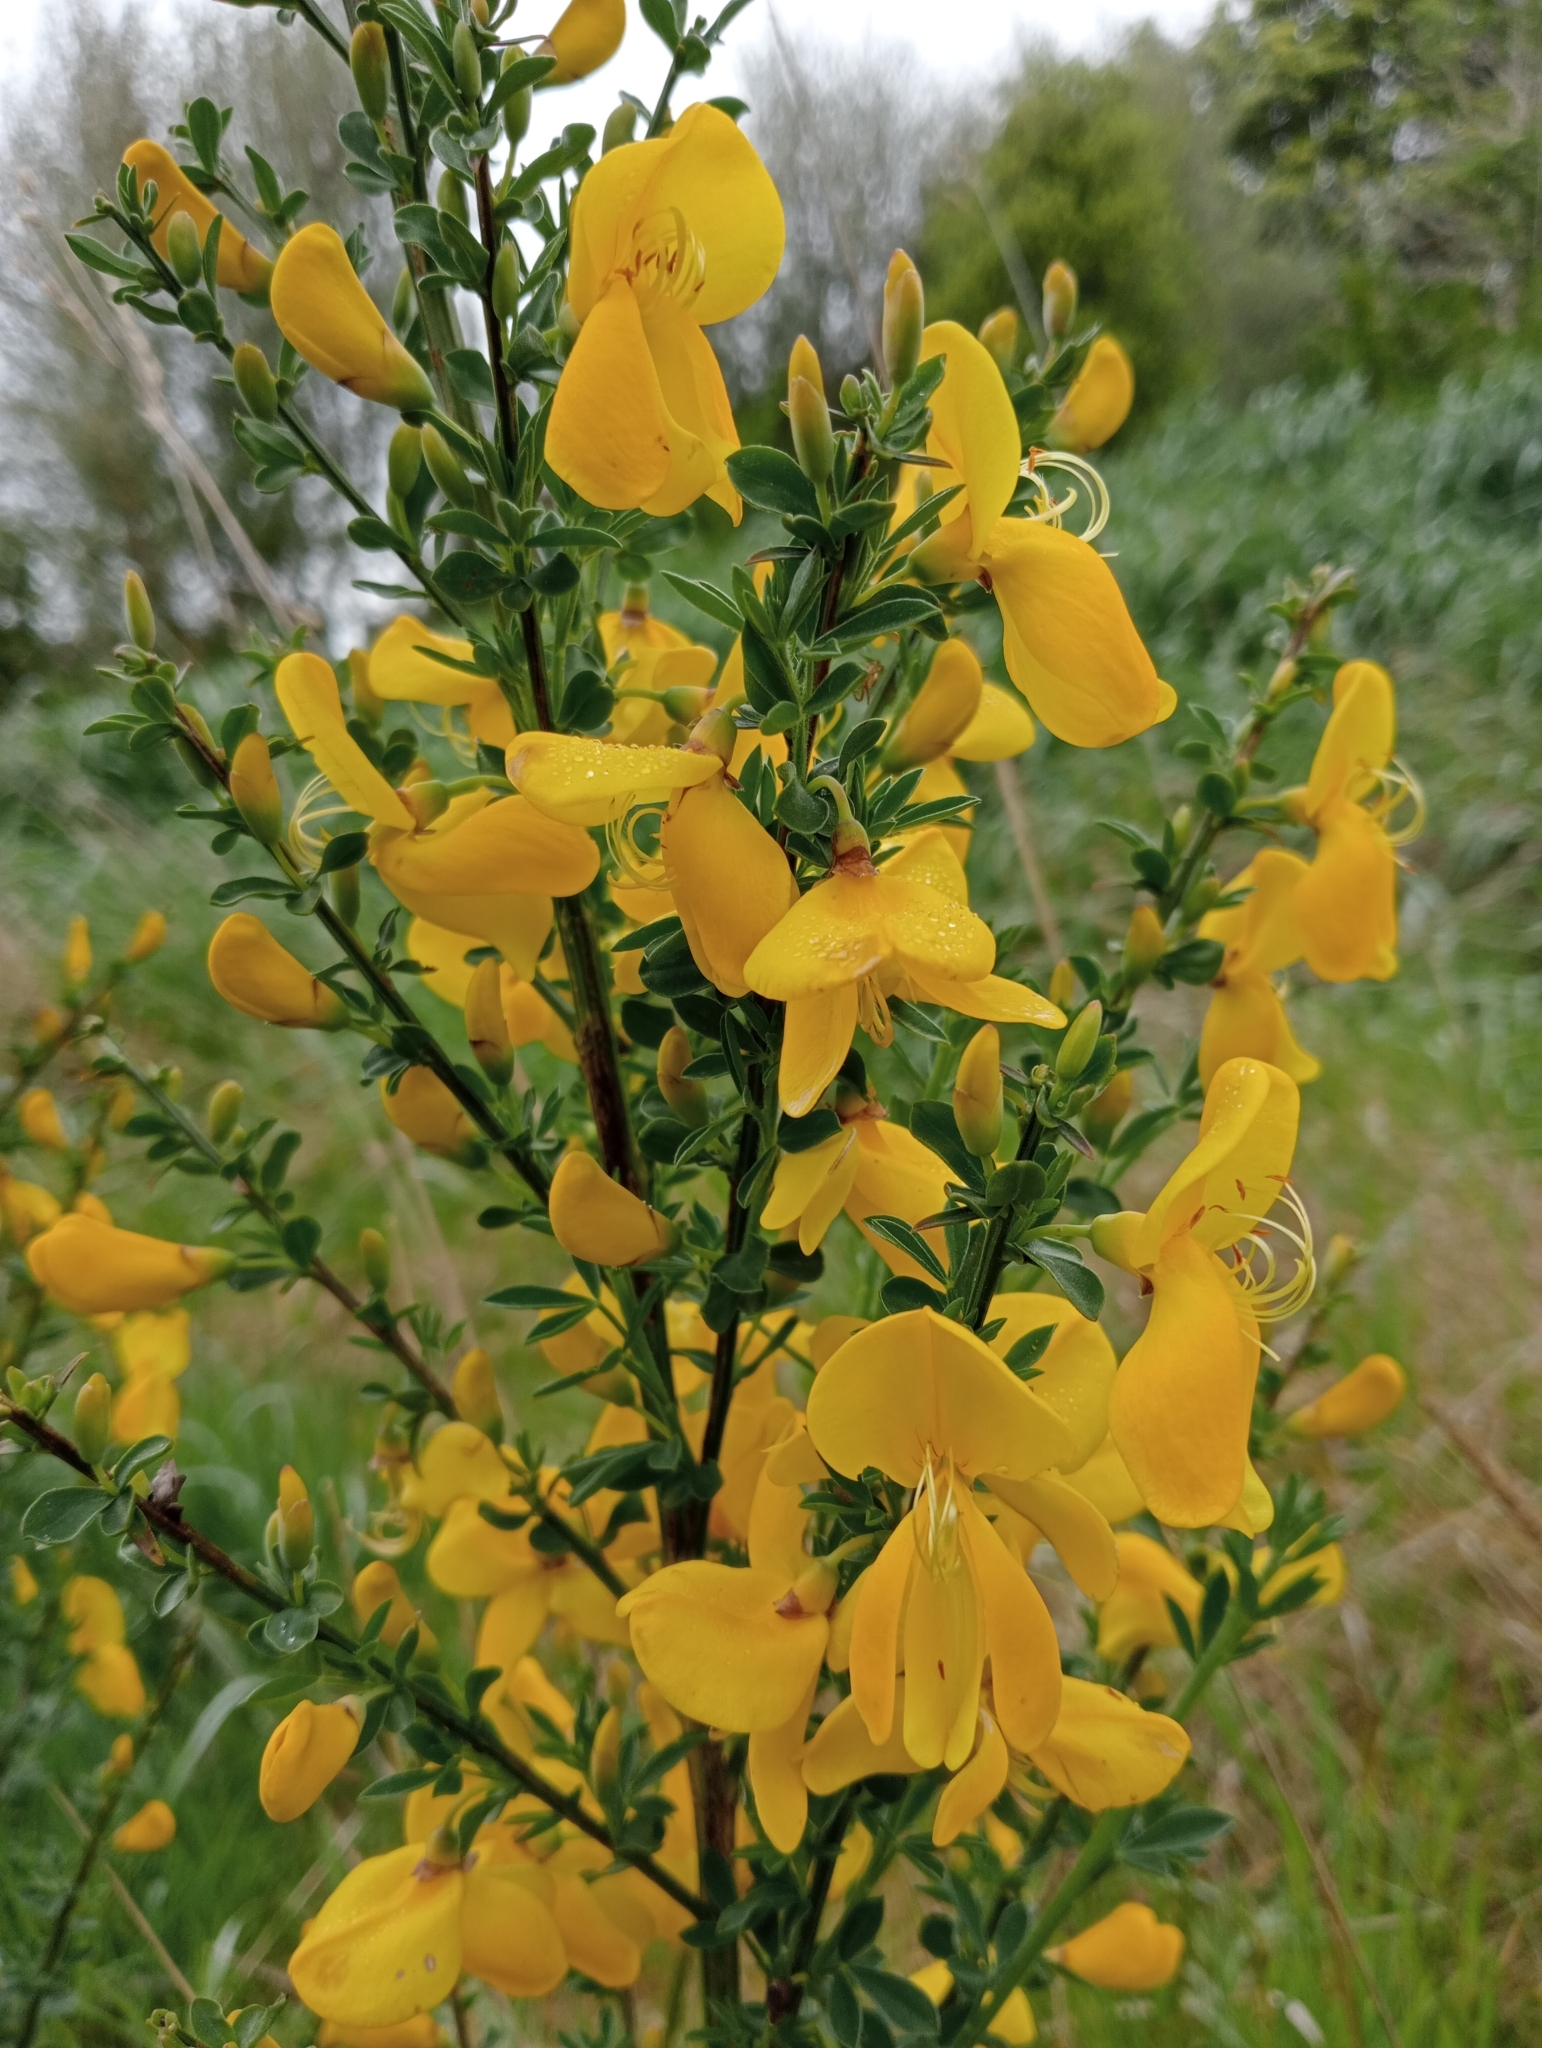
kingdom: Plantae
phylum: Tracheophyta
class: Magnoliopsida
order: Fabales
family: Fabaceae
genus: Cytisus
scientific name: Cytisus scoparius
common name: Scotch broom
